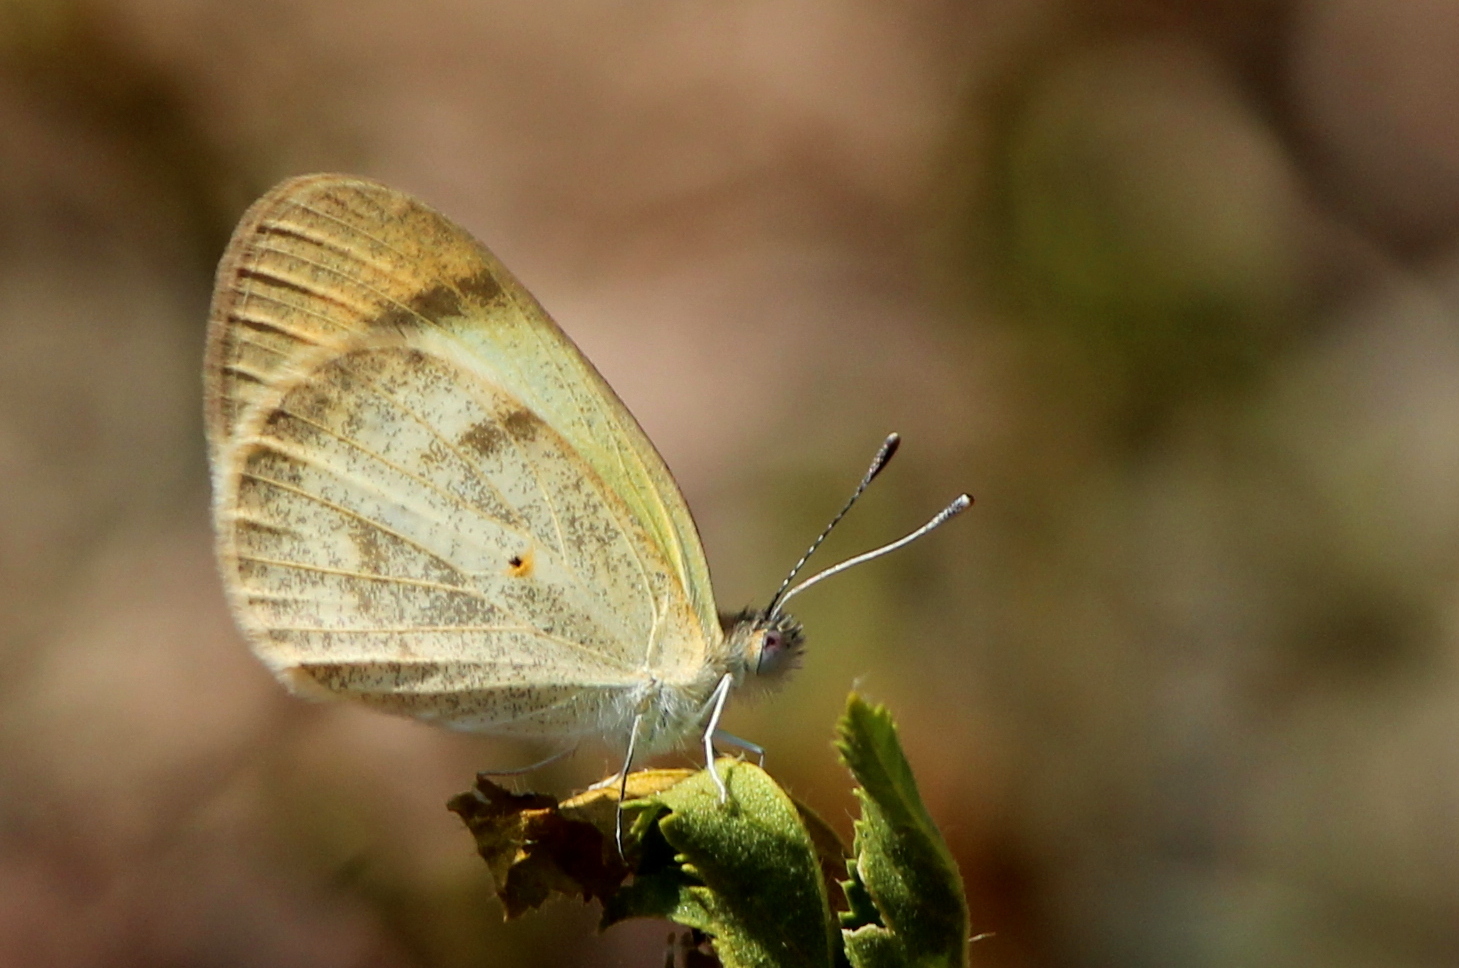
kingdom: Animalia
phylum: Arthropoda
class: Insecta
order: Lepidoptera
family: Pieridae
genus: Colotis
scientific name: Colotis etrida
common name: Little orange tip
